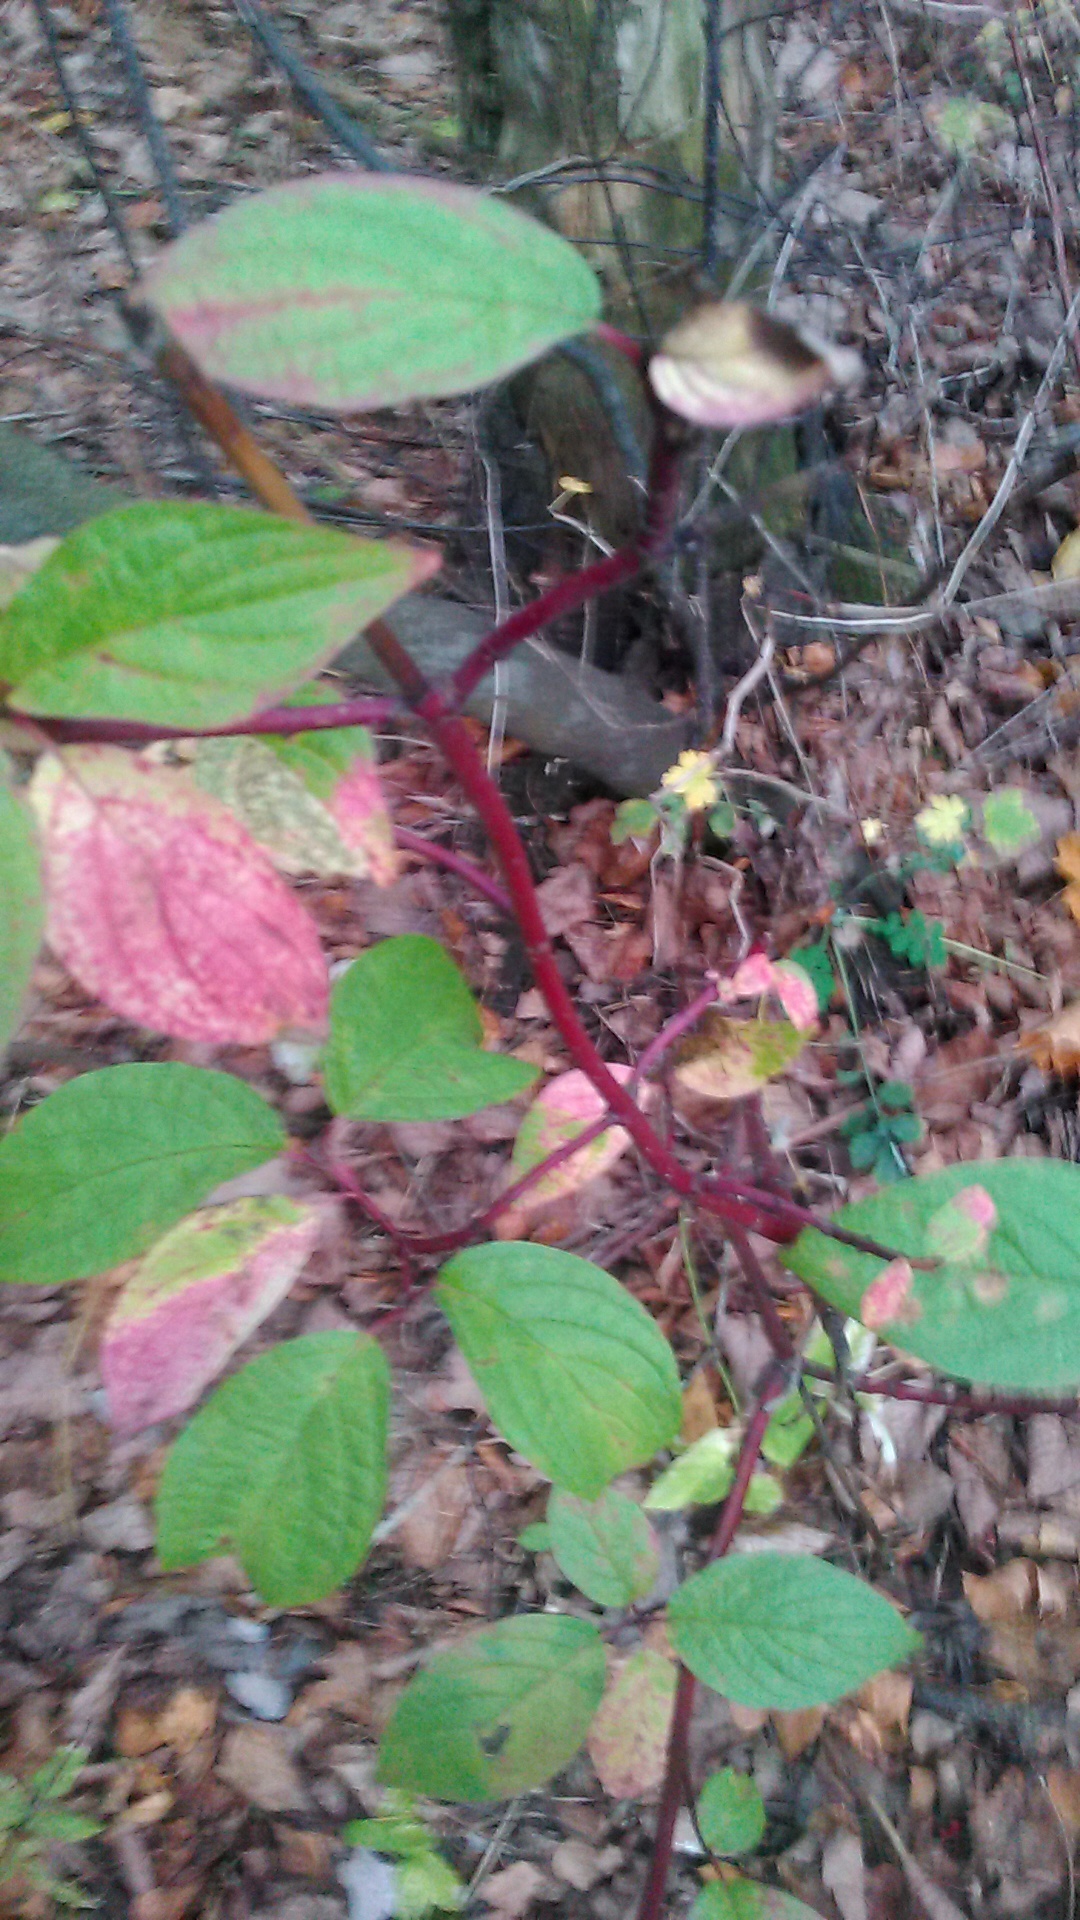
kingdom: Plantae
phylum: Tracheophyta
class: Magnoliopsida
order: Cornales
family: Cornaceae
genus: Cornus
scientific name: Cornus sericea
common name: Red-osier dogwood
